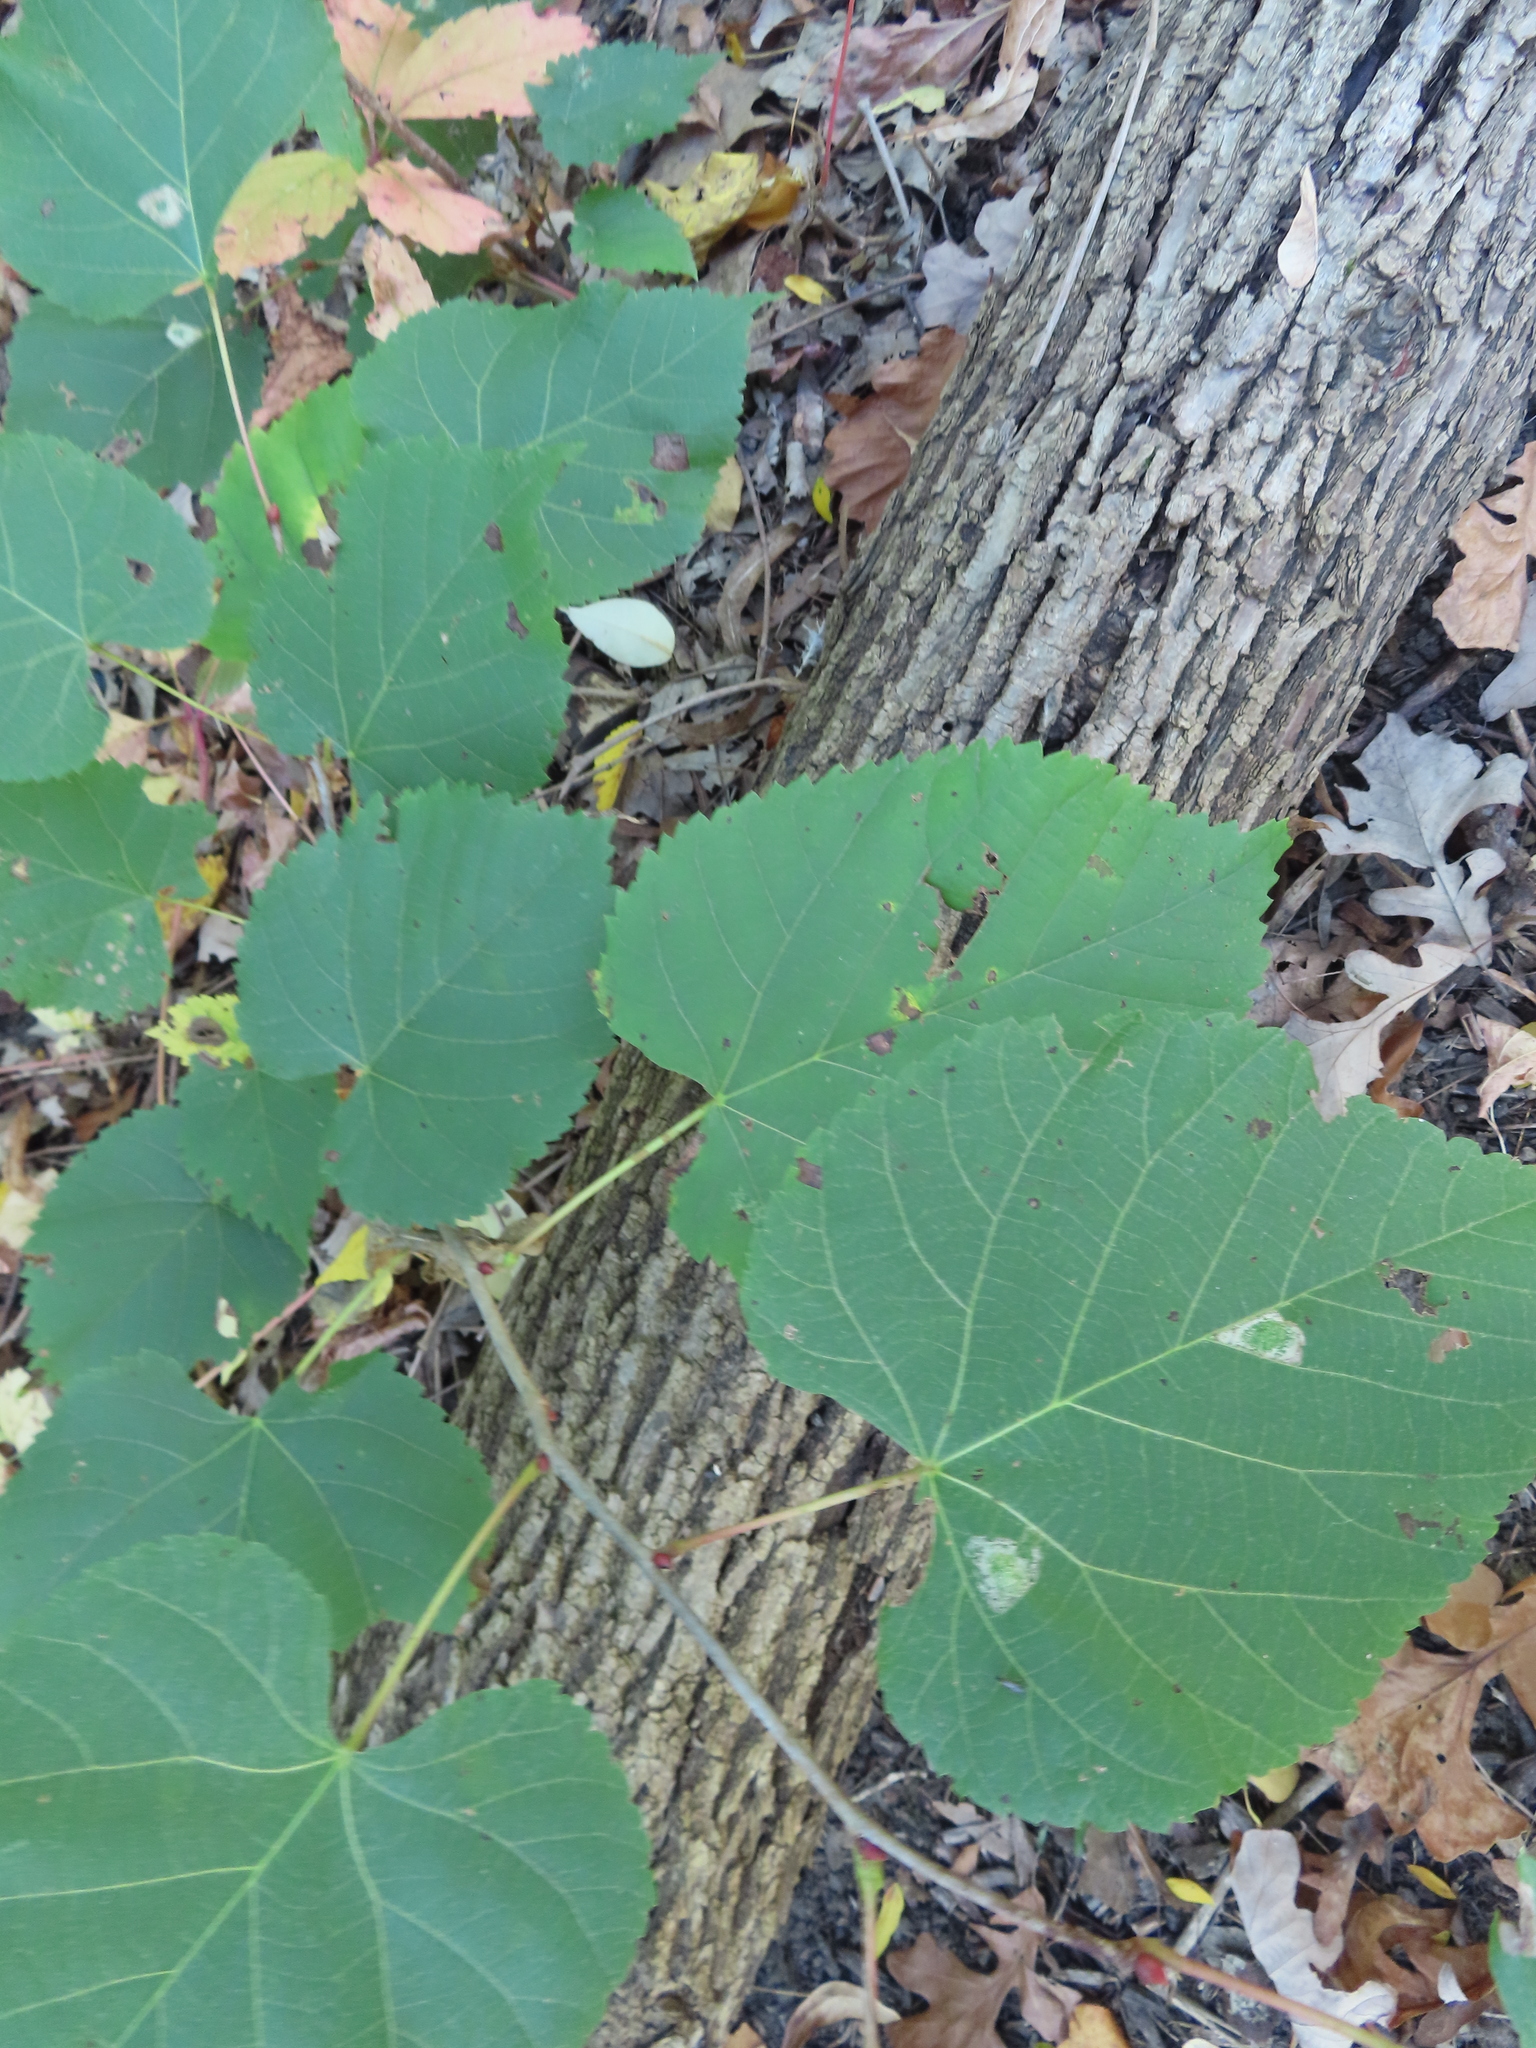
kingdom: Plantae
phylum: Tracheophyta
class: Magnoliopsida
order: Malvales
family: Malvaceae
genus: Tilia
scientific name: Tilia americana
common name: Basswood
